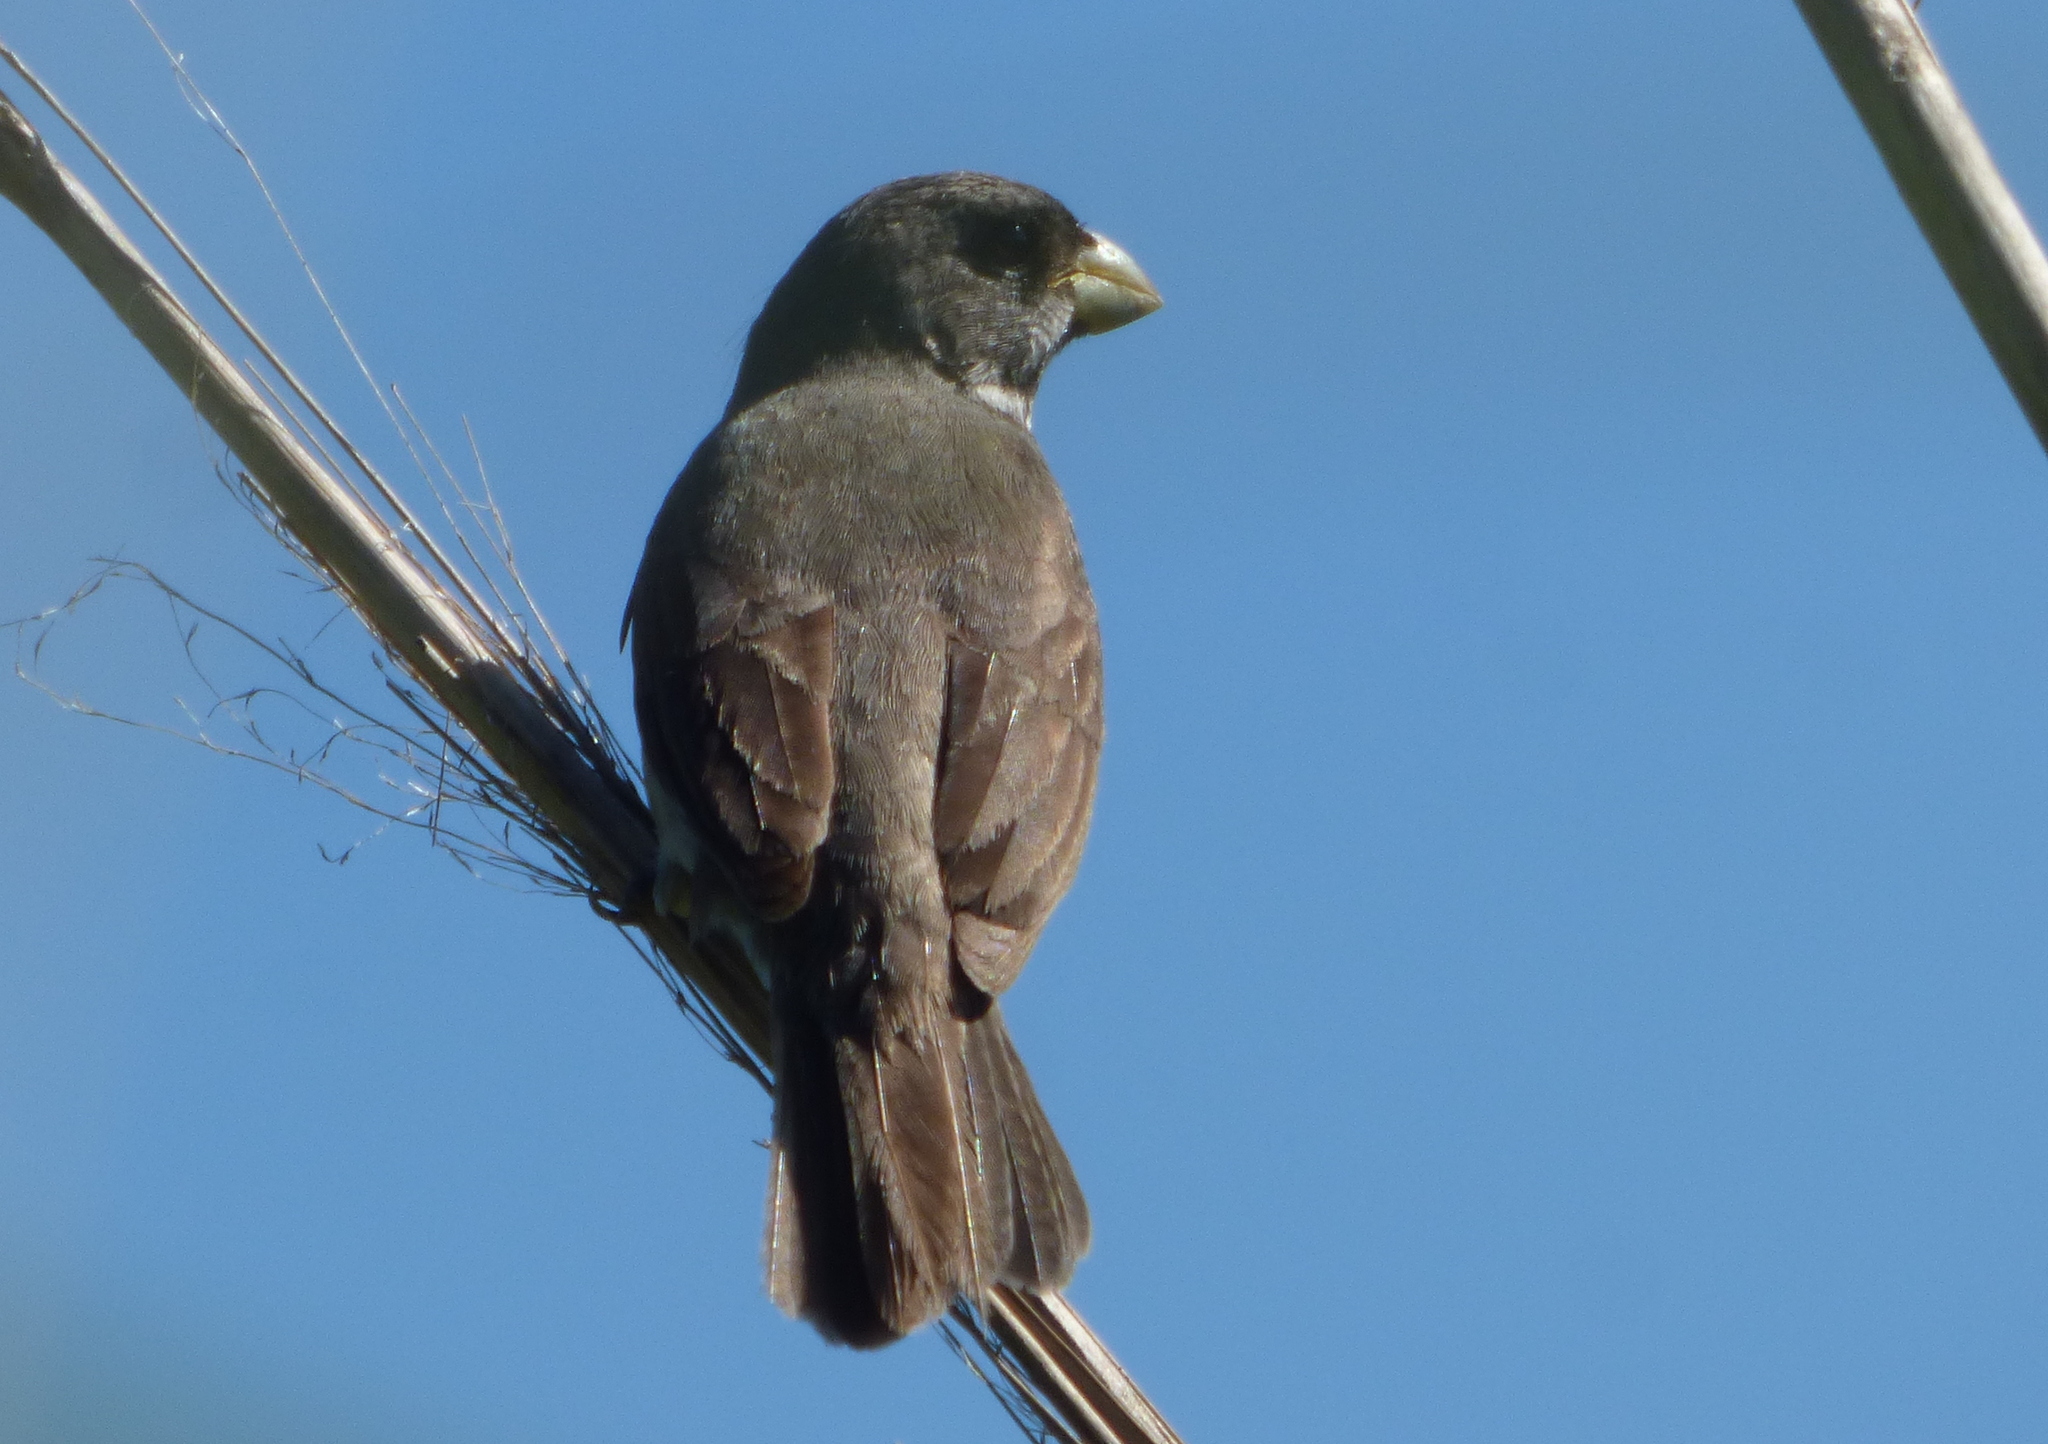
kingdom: Animalia
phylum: Chordata
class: Aves
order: Passeriformes
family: Thraupidae
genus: Sporophila
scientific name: Sporophila caerulescens
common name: Double-collared seedeater
